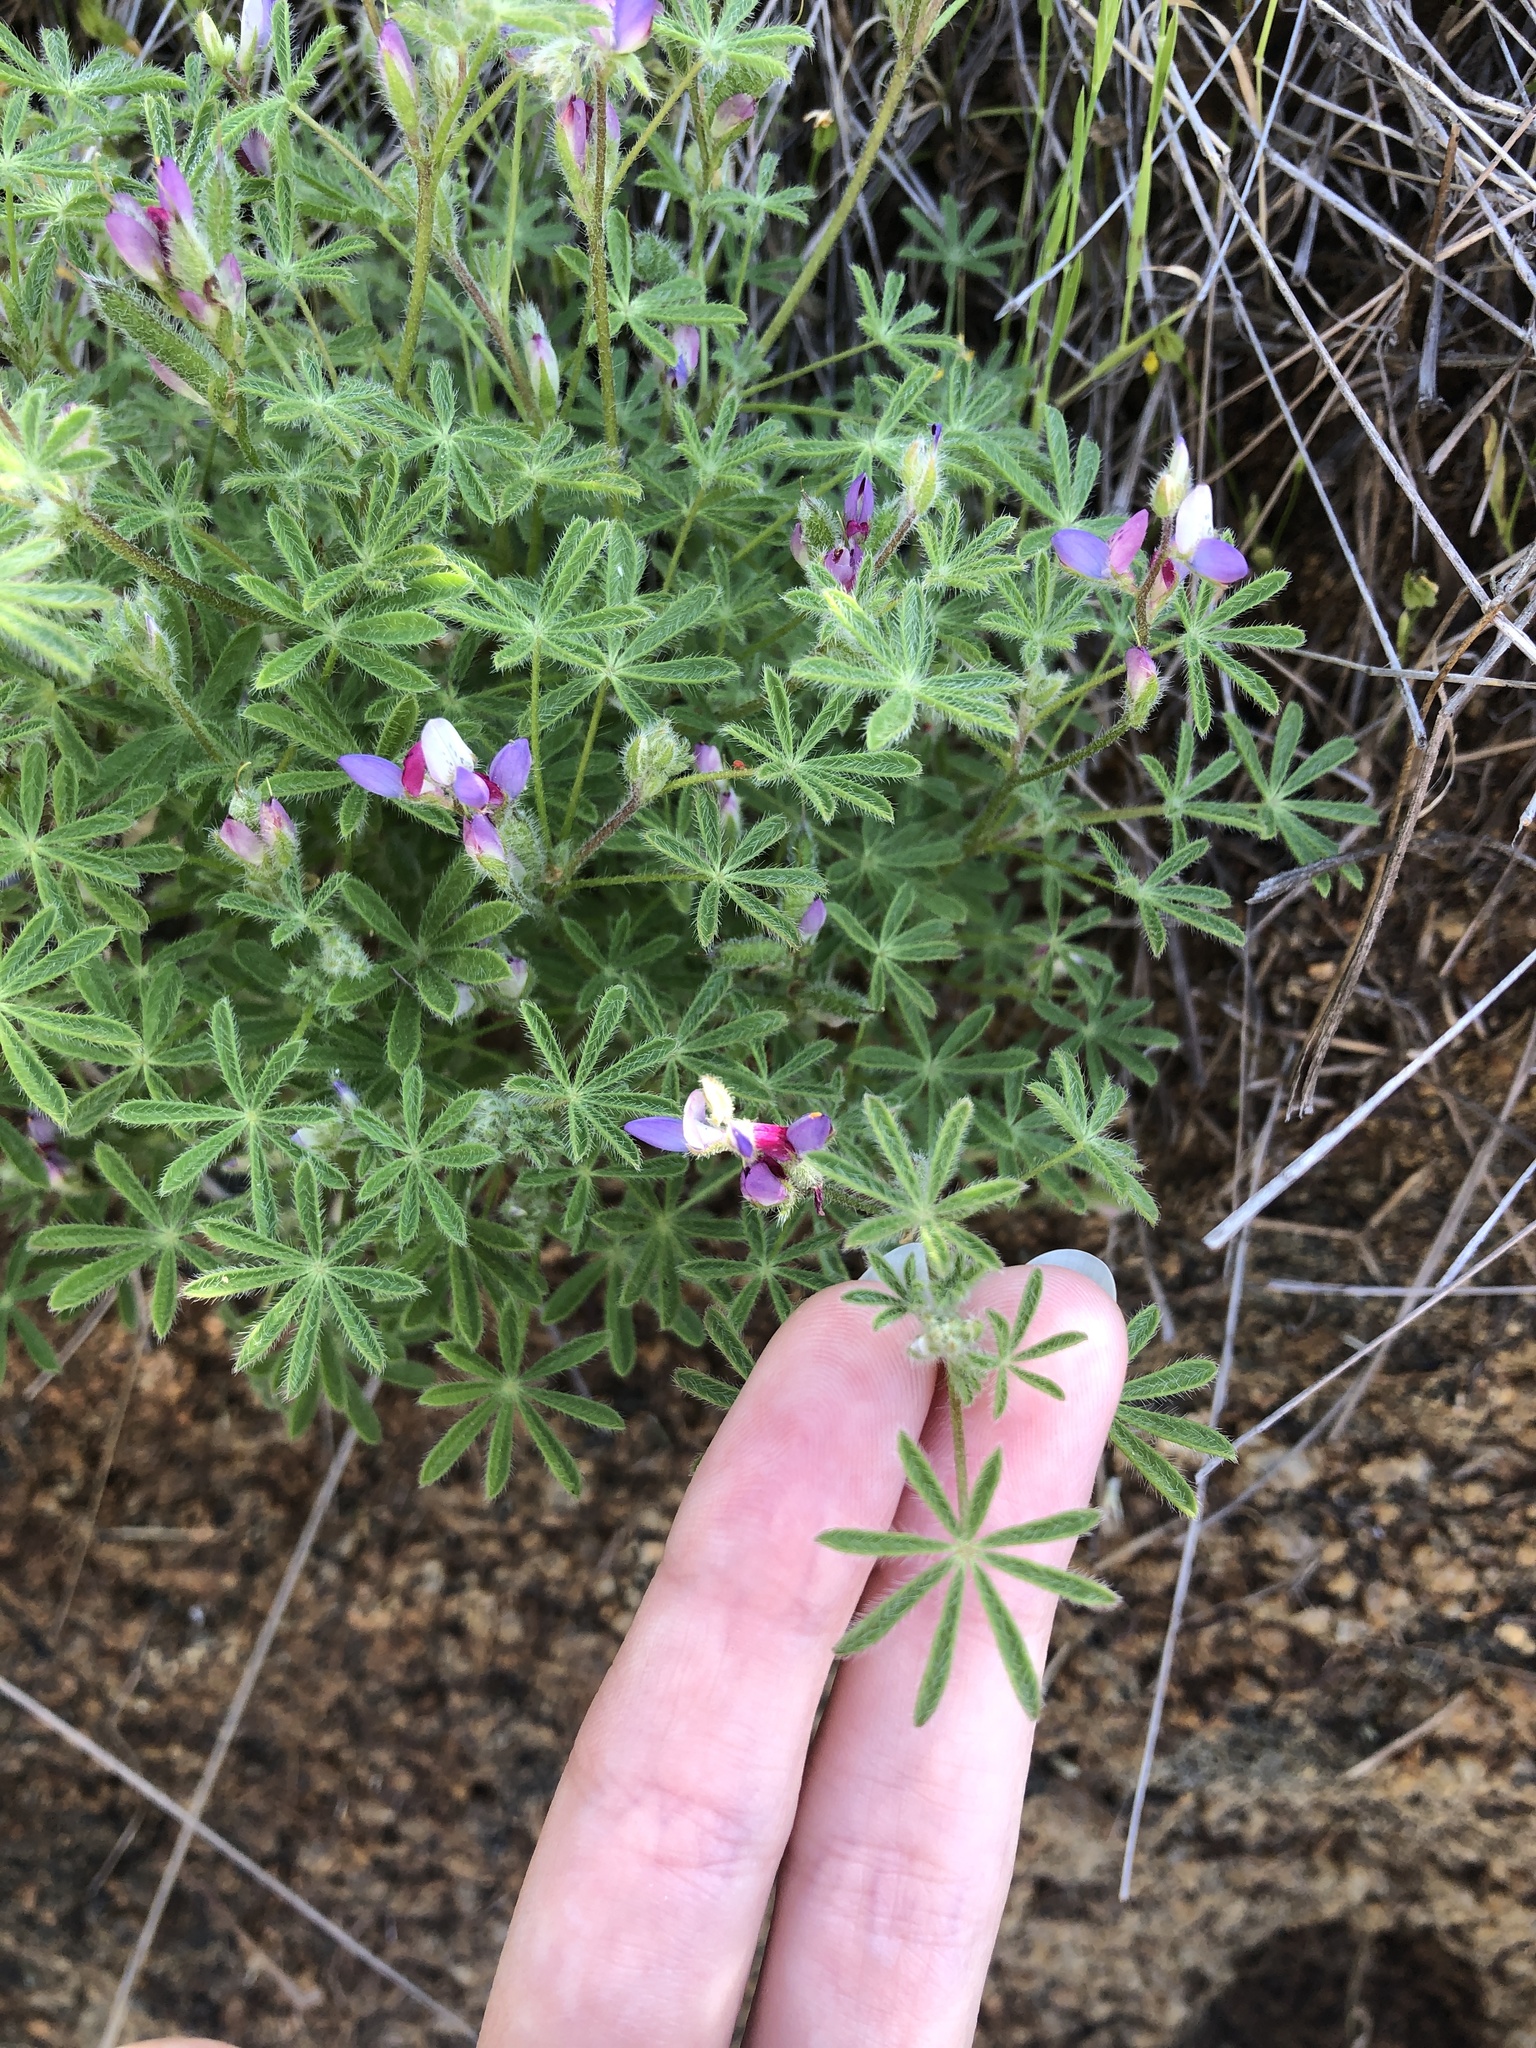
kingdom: Plantae
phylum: Tracheophyta
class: Magnoliopsida
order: Fabales
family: Fabaceae
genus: Lupinus
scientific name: Lupinus bicolor
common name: Miniature lupine
